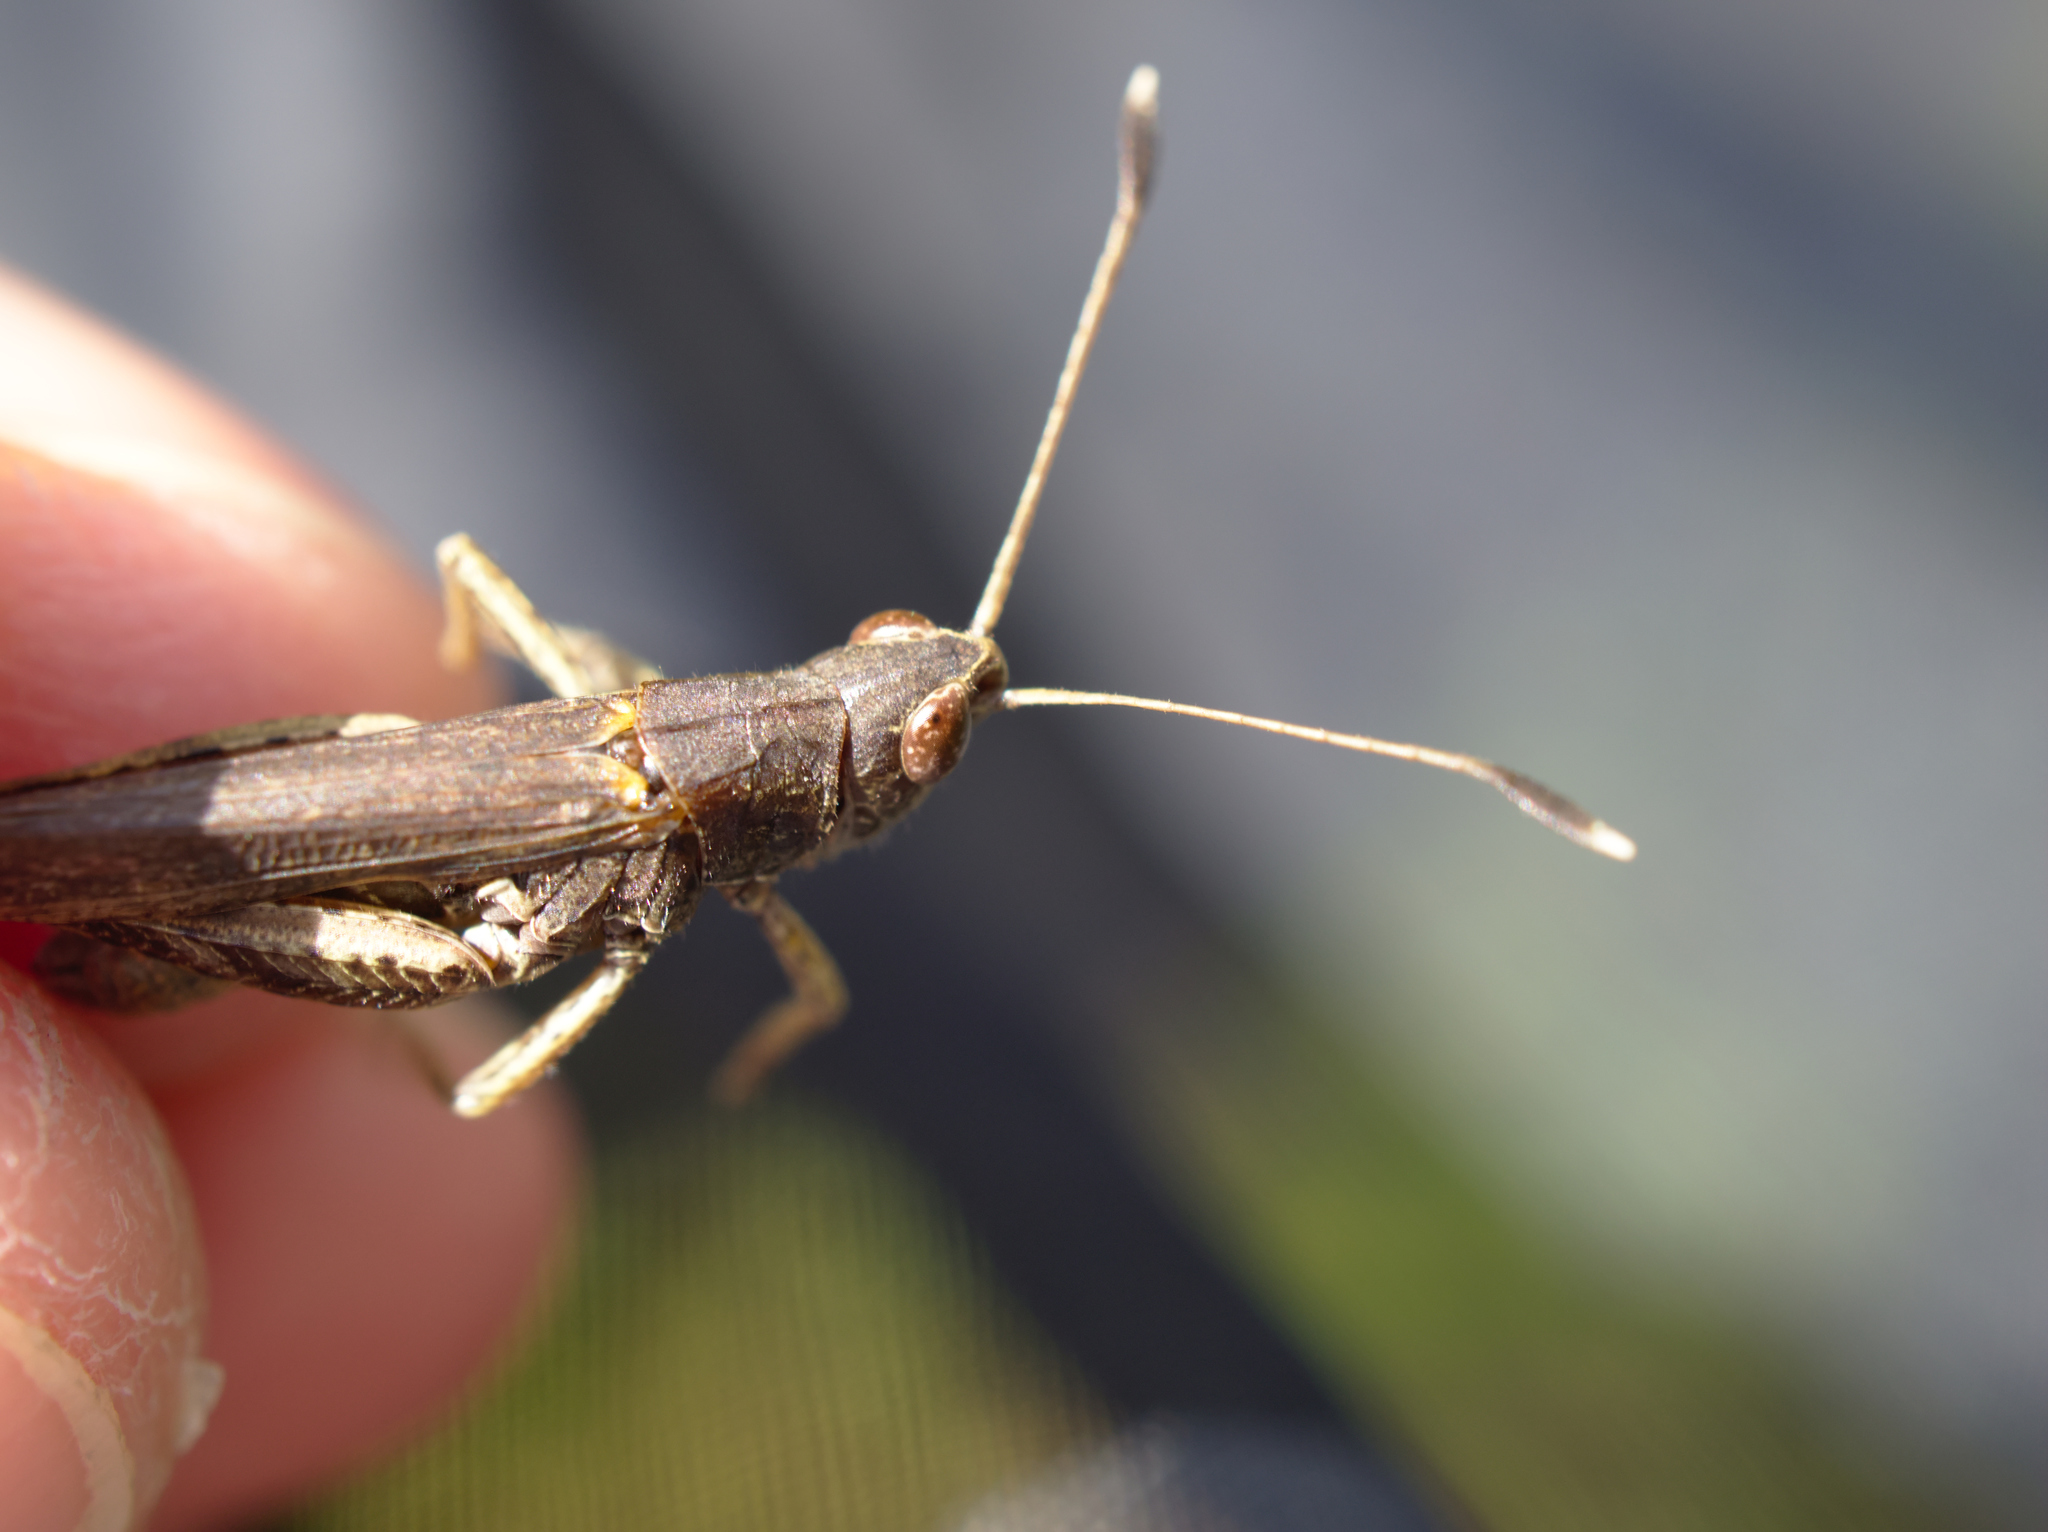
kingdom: Animalia
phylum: Arthropoda
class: Insecta
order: Orthoptera
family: Acrididae
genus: Gomphocerippus
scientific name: Gomphocerippus rufus
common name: Rufous grasshopper
